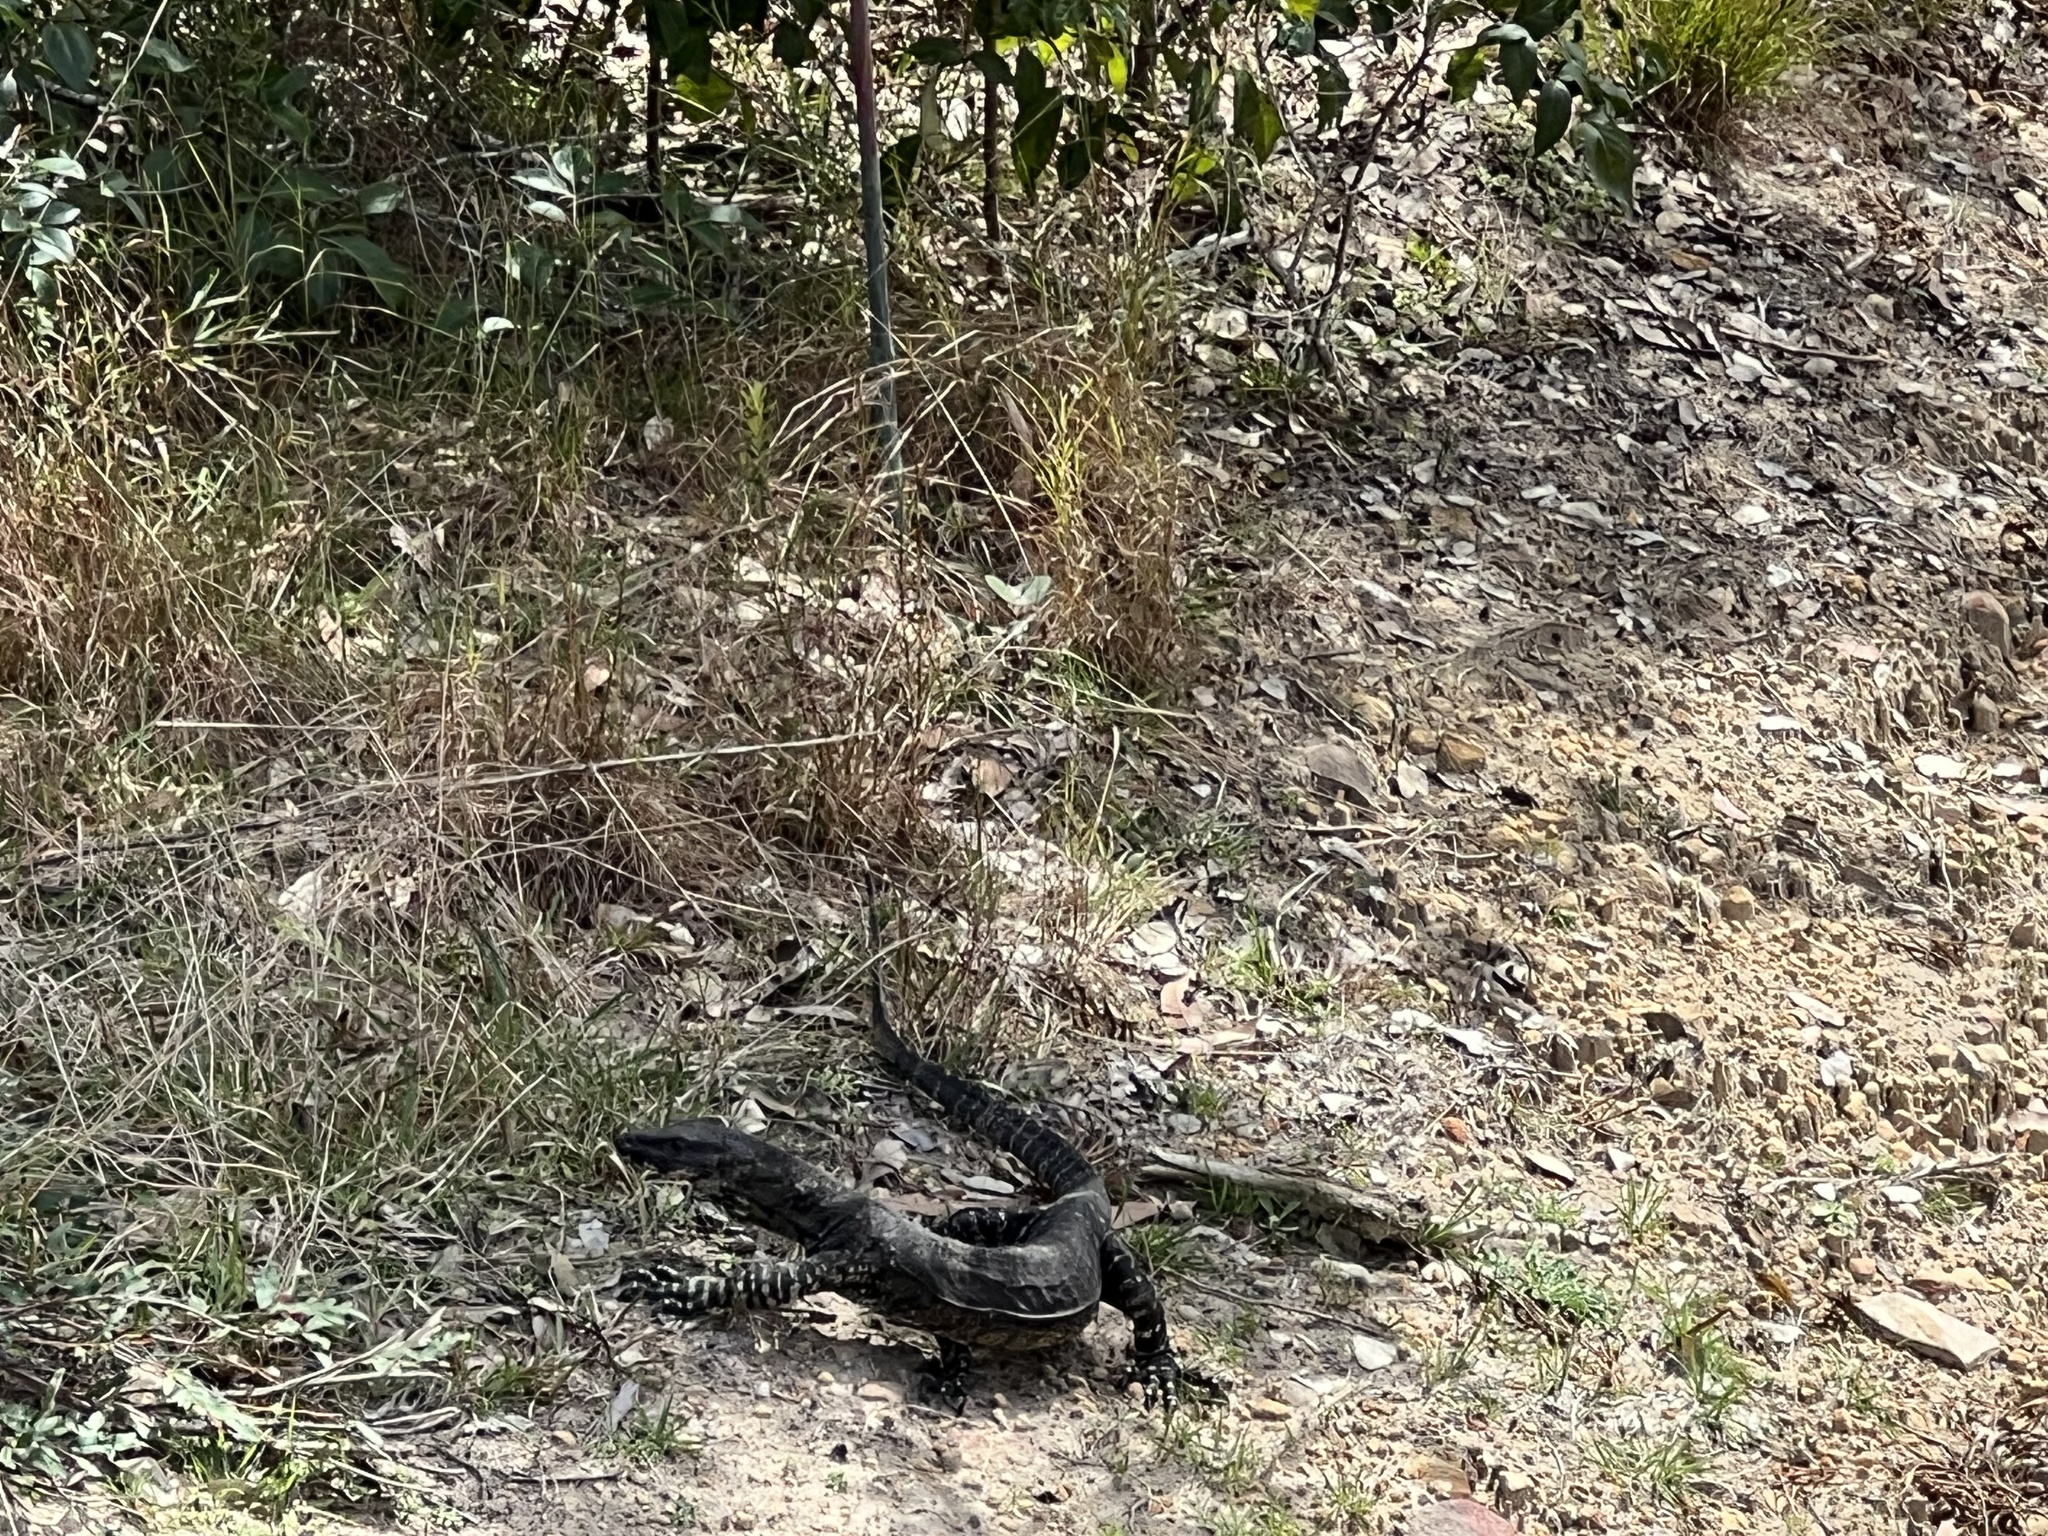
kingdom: Animalia
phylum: Chordata
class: Squamata
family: Varanidae
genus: Varanus
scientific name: Varanus varius
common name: Lace monitor
